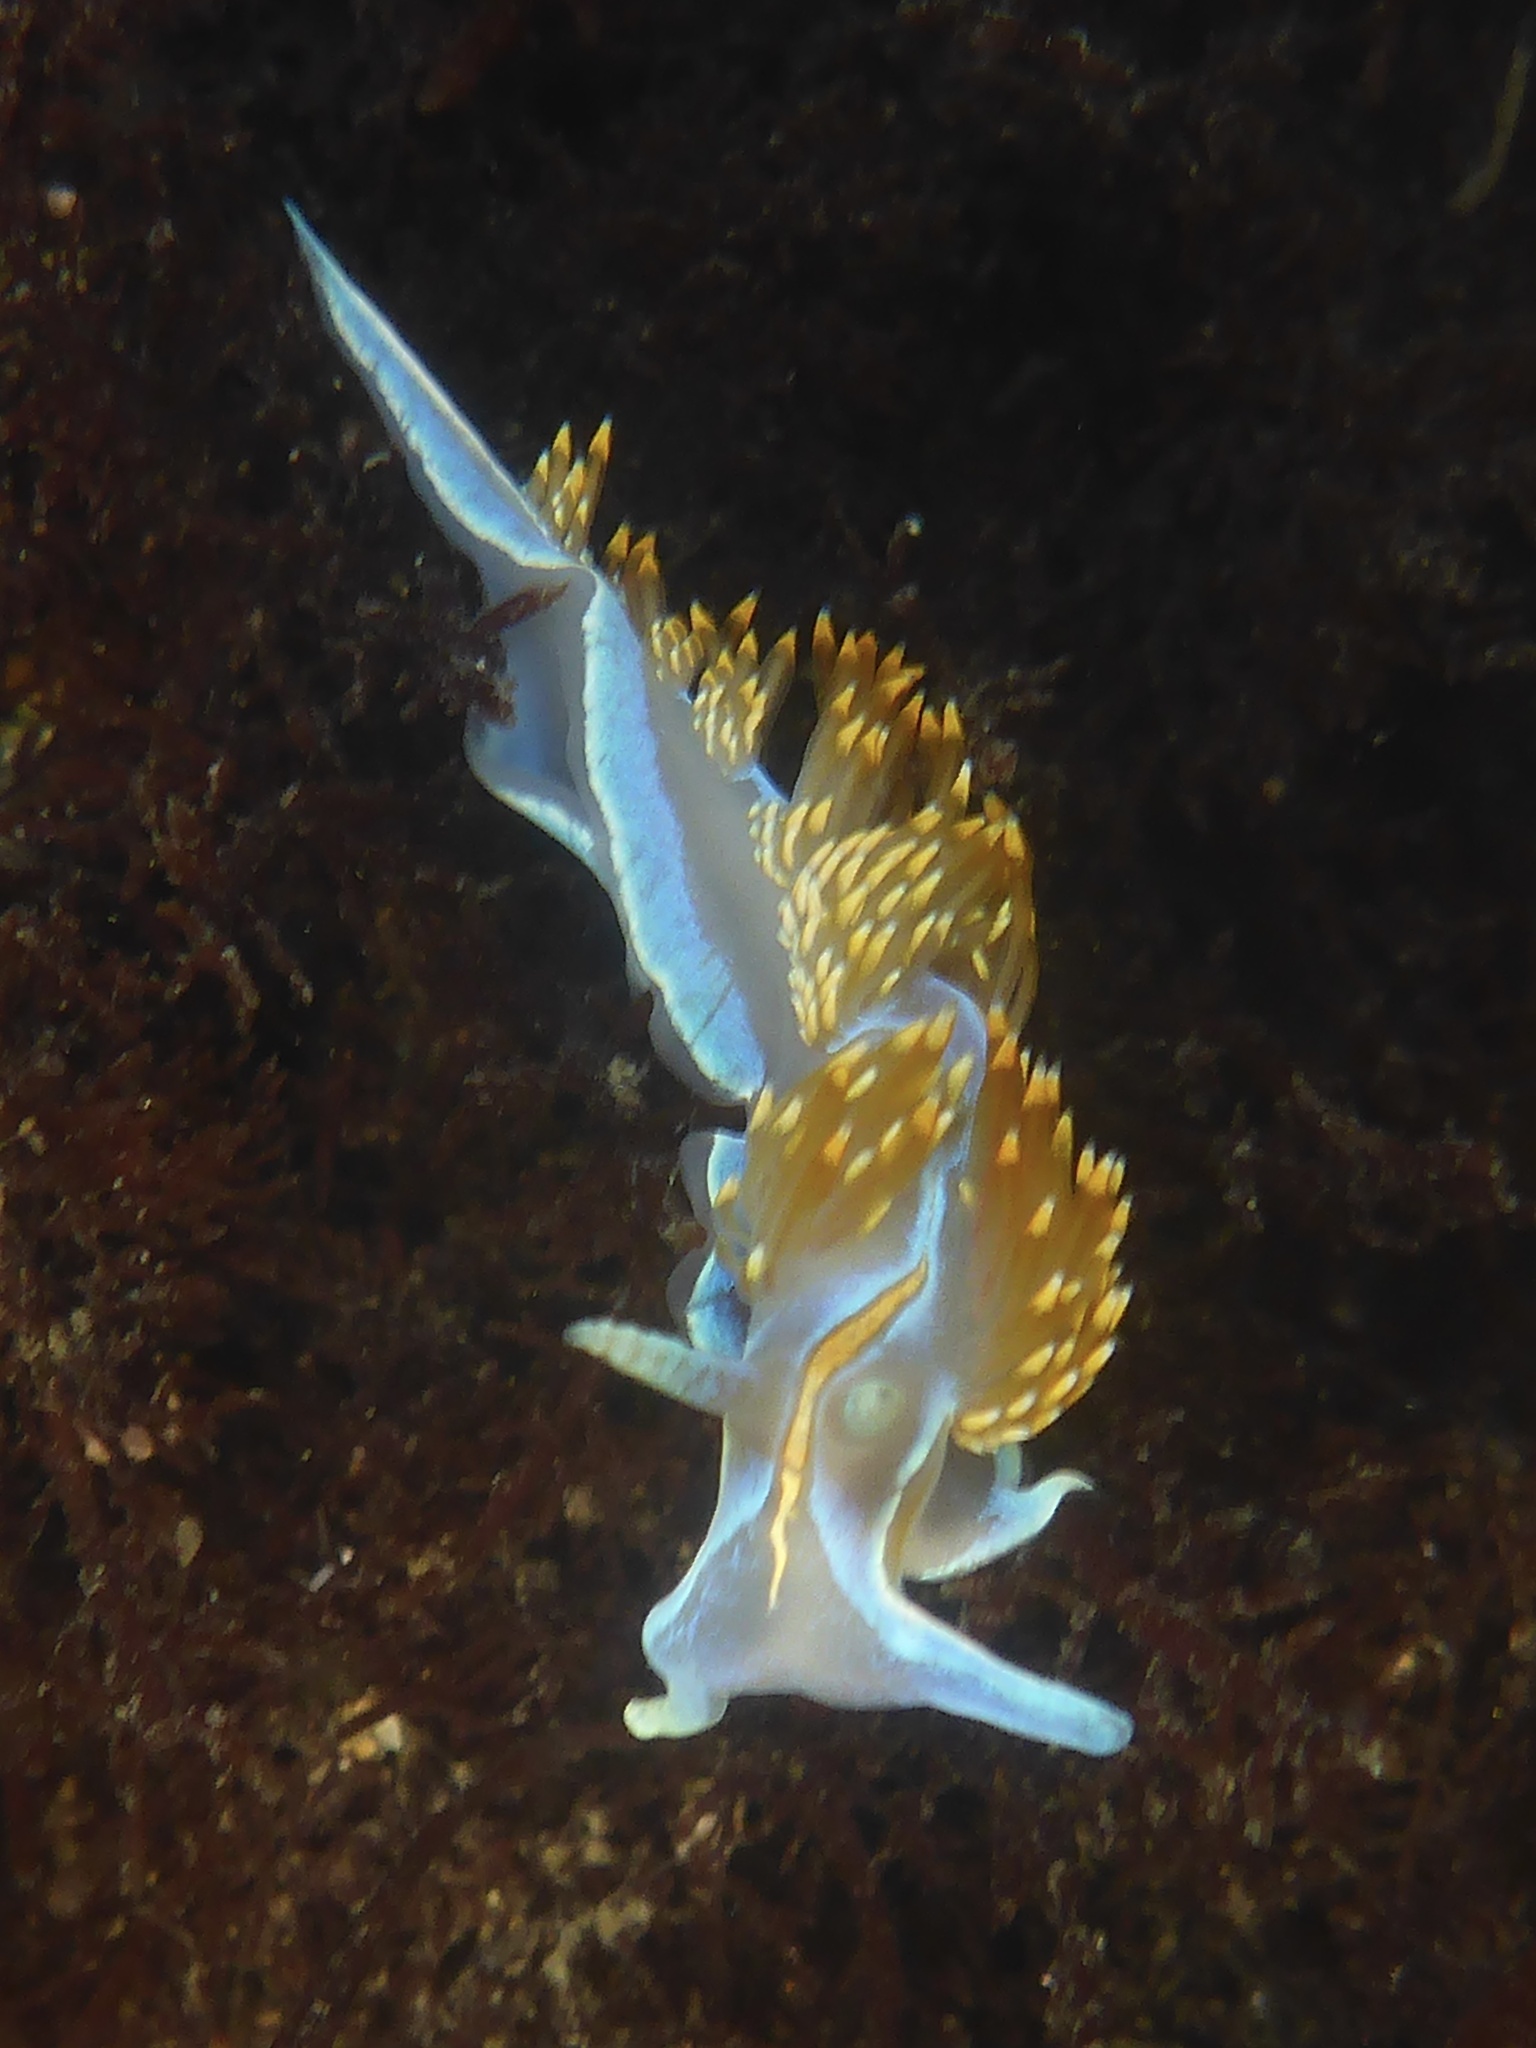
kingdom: Animalia
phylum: Mollusca
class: Gastropoda
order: Nudibranchia
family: Myrrhinidae
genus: Hermissenda
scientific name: Hermissenda opalescens
